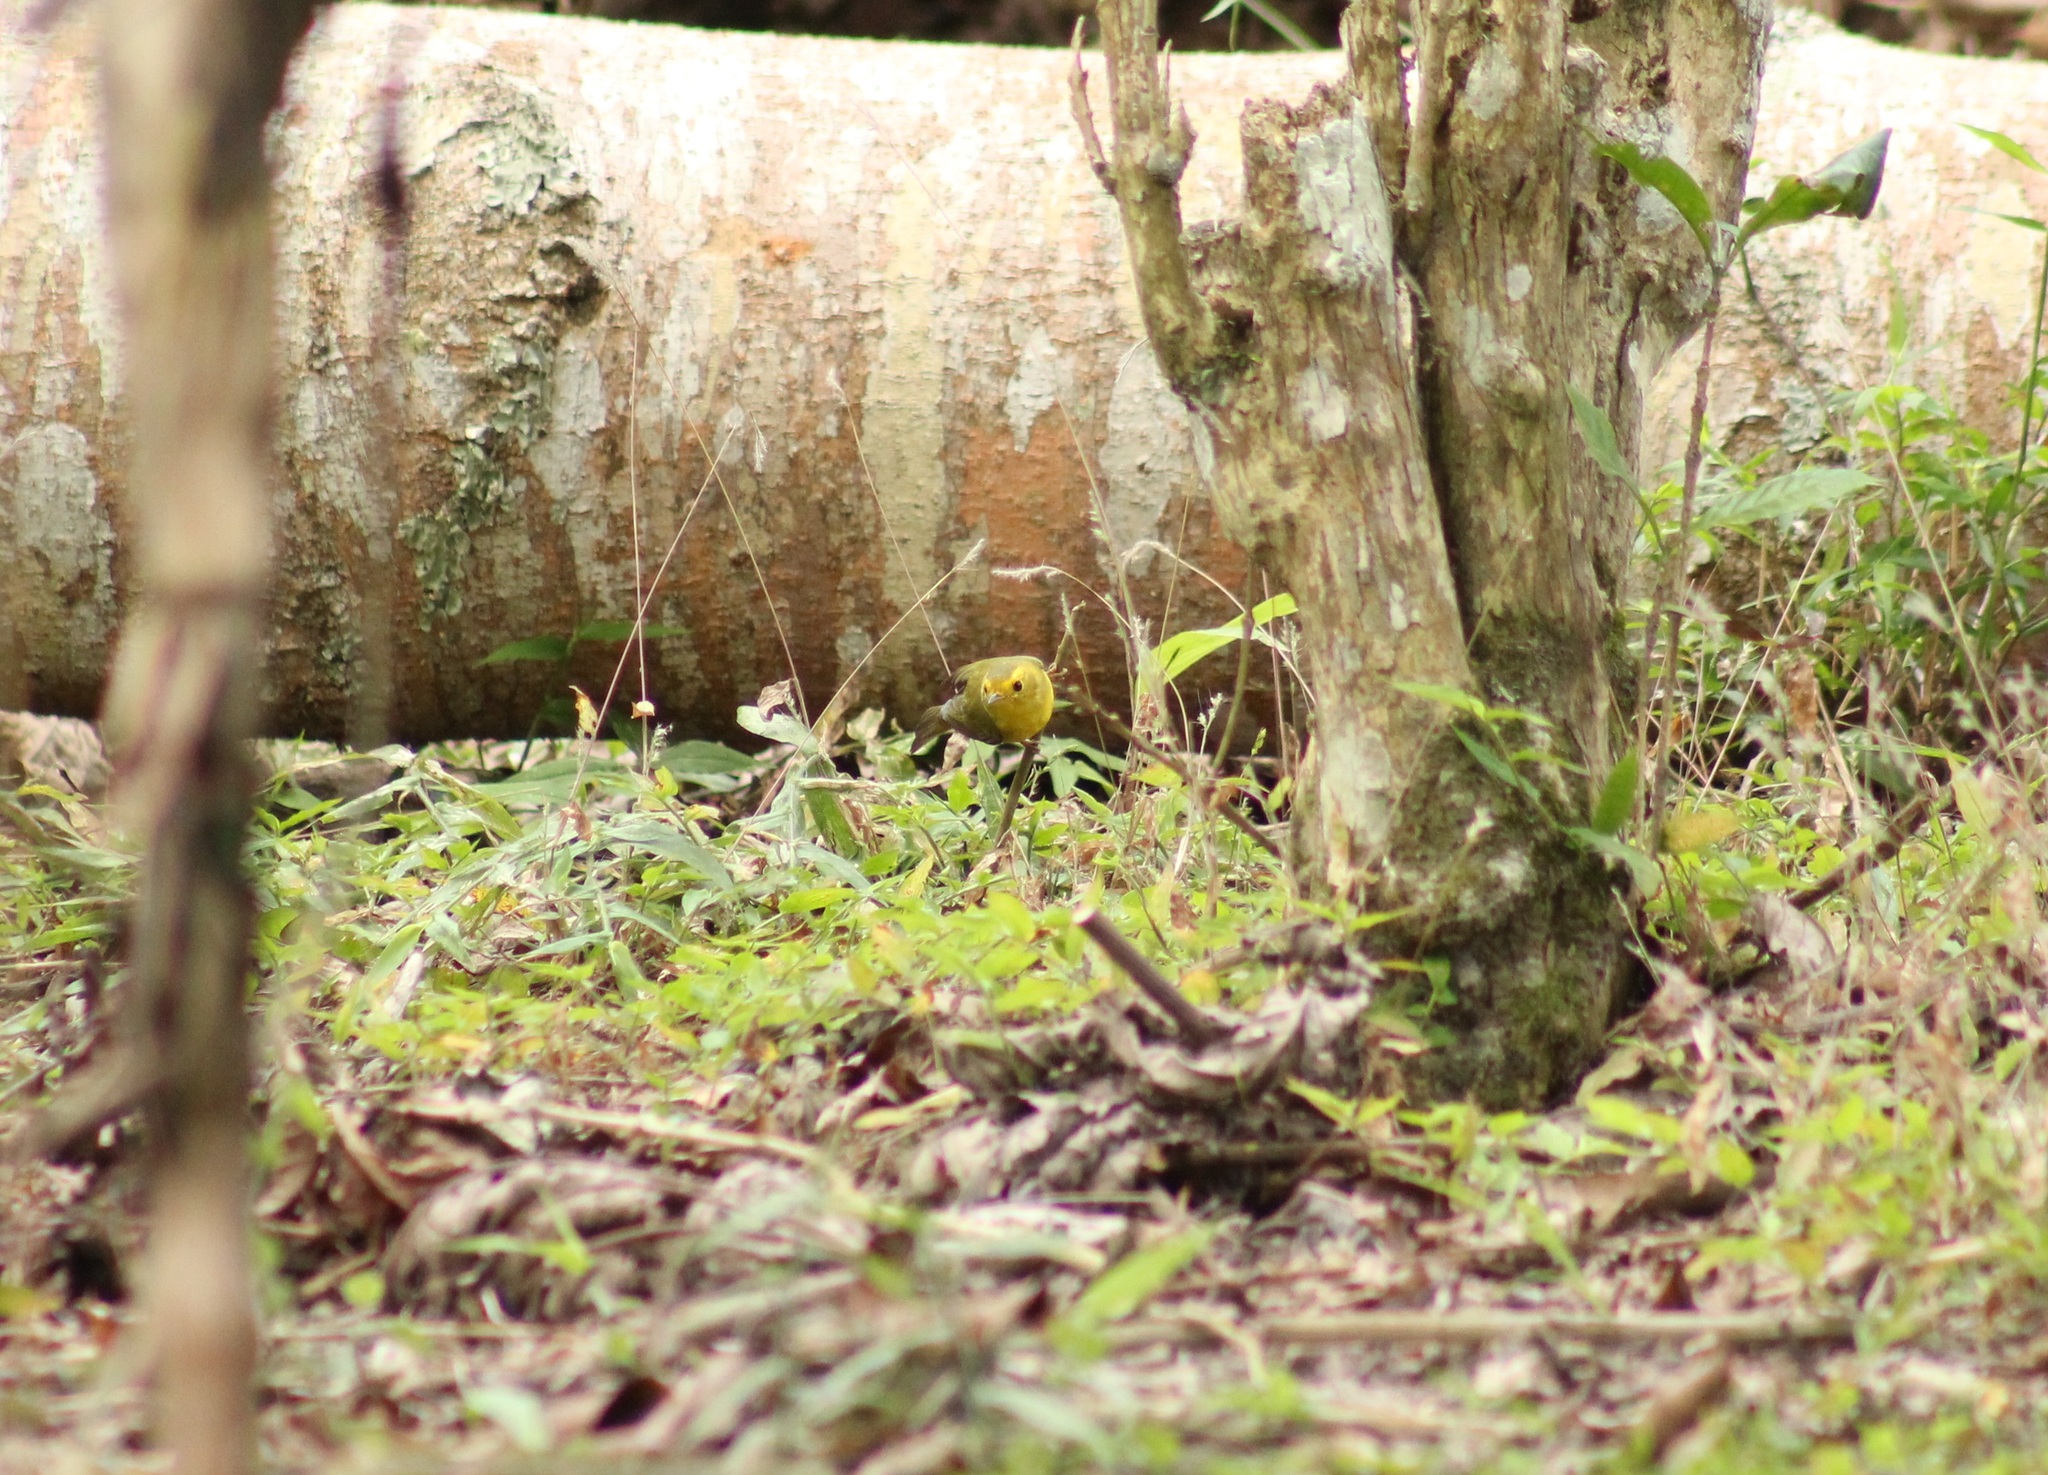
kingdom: Animalia
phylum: Chordata
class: Aves
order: Passeriformes
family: Parulidae
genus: Cardellina
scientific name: Cardellina pusilla
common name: Wilson's warbler
